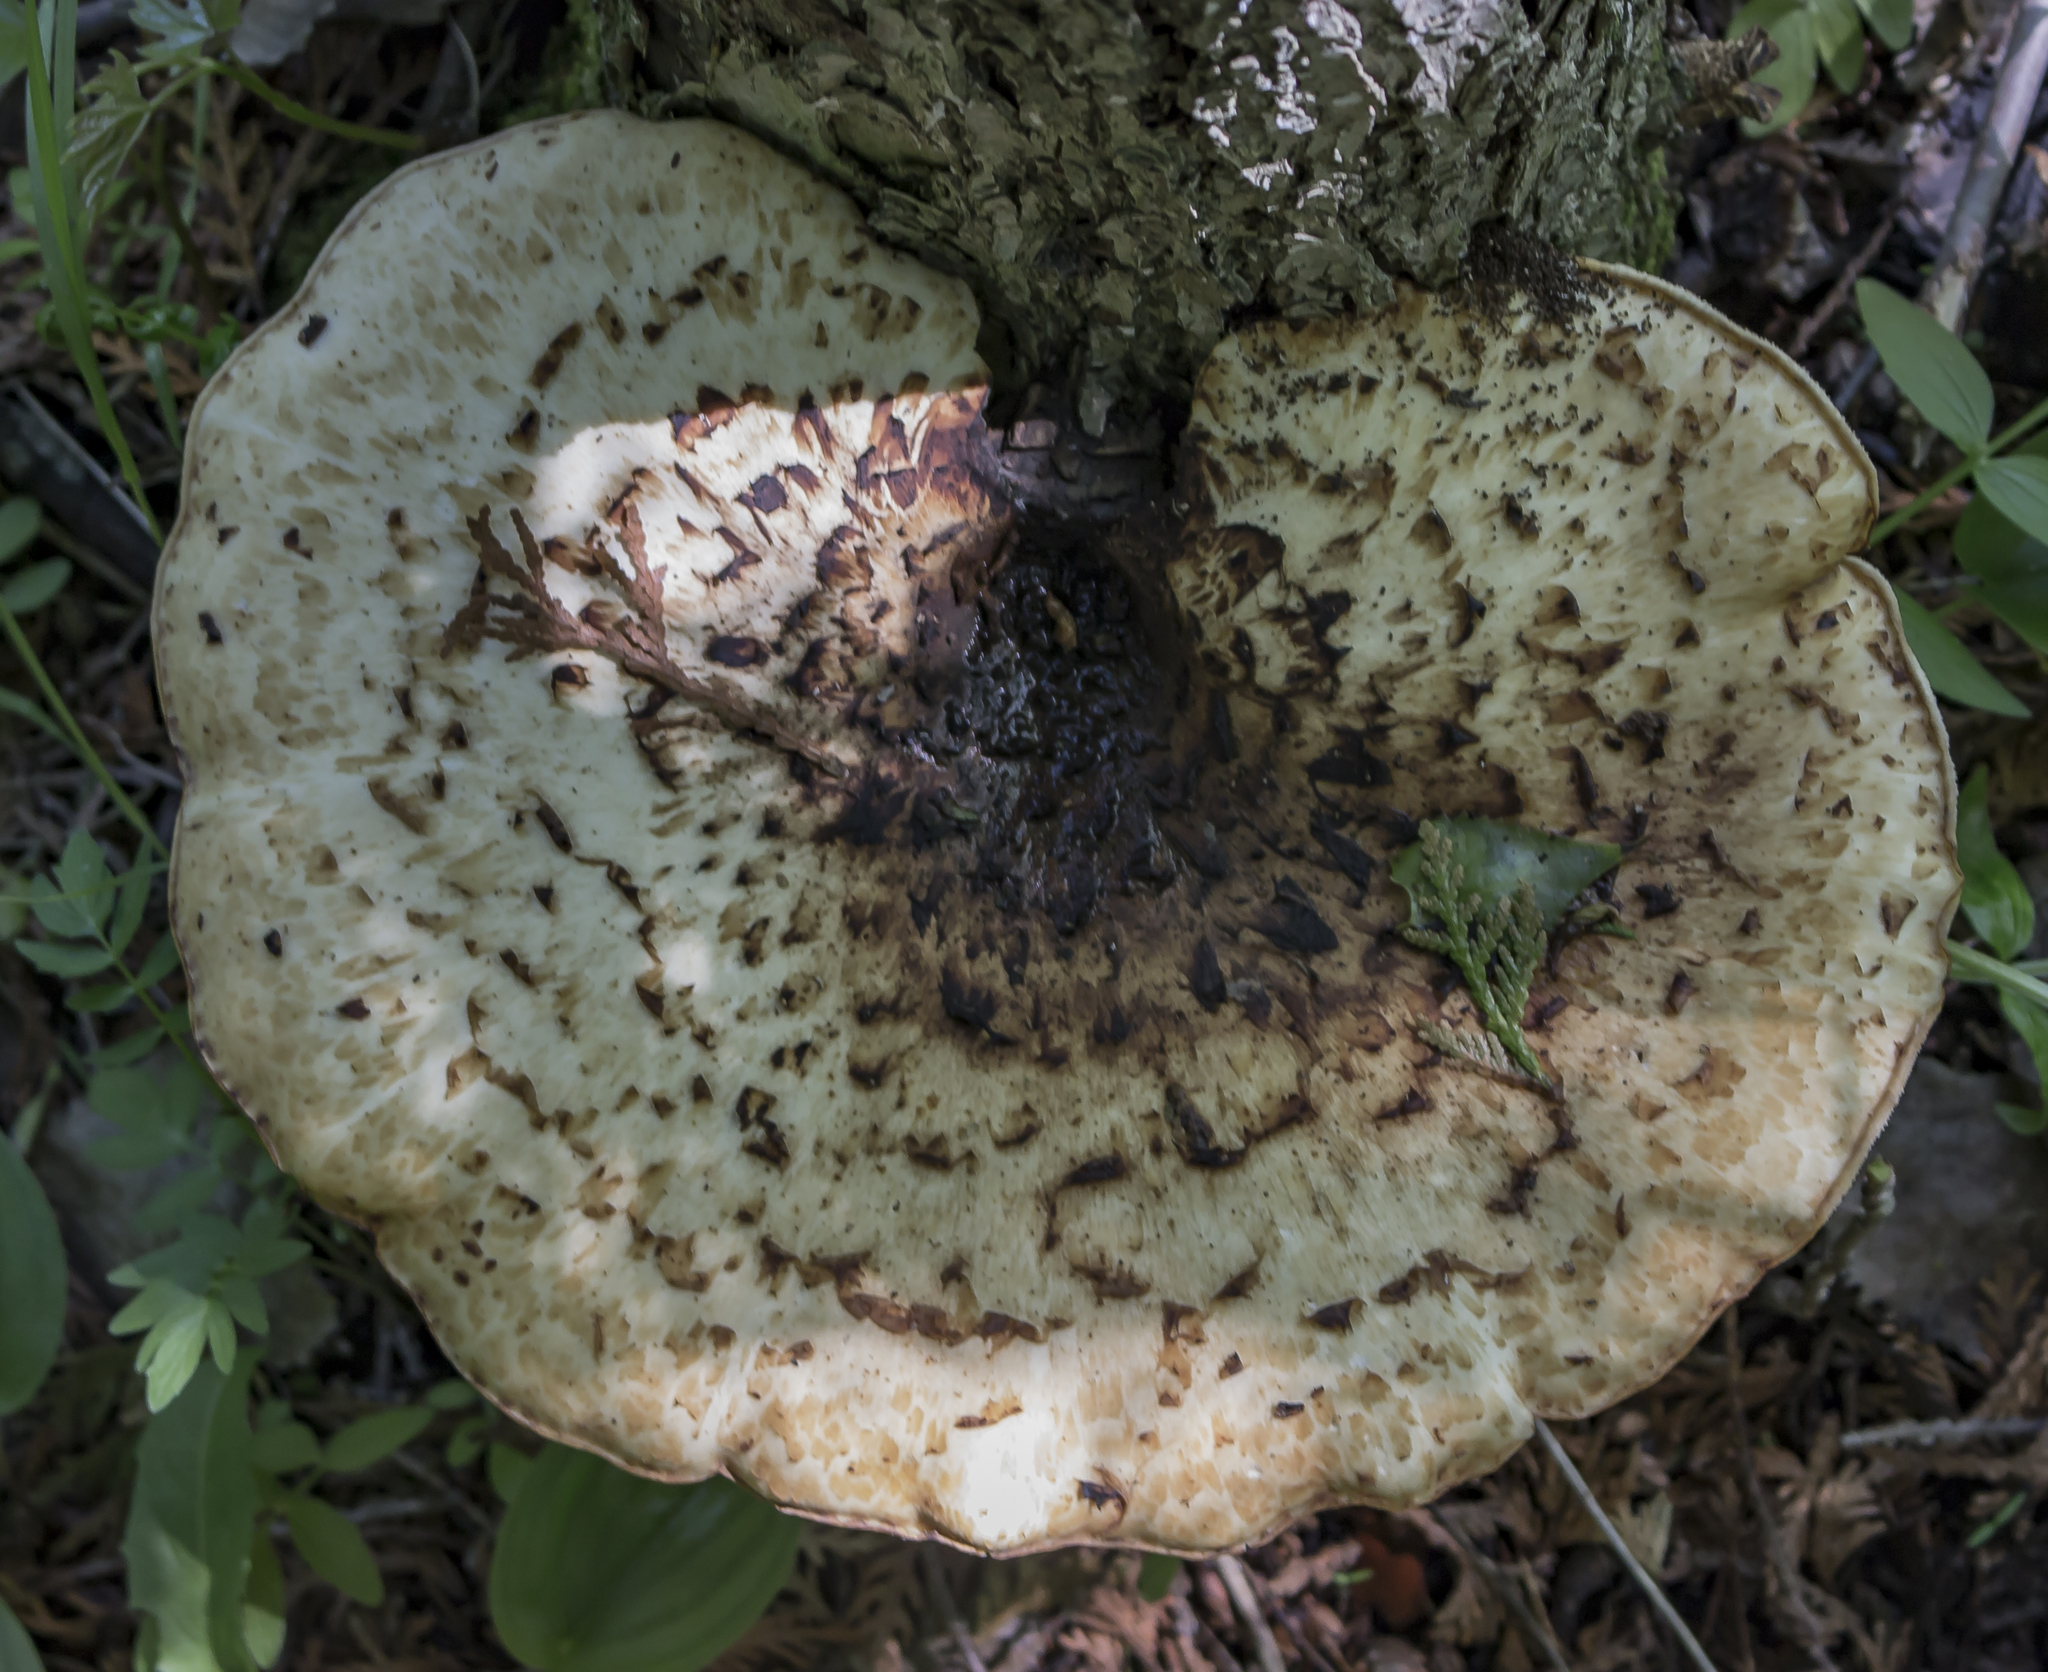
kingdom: Fungi
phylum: Basidiomycota
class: Agaricomycetes
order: Polyporales
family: Polyporaceae
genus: Cerioporus
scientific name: Cerioporus squamosus
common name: Dryad's saddle
